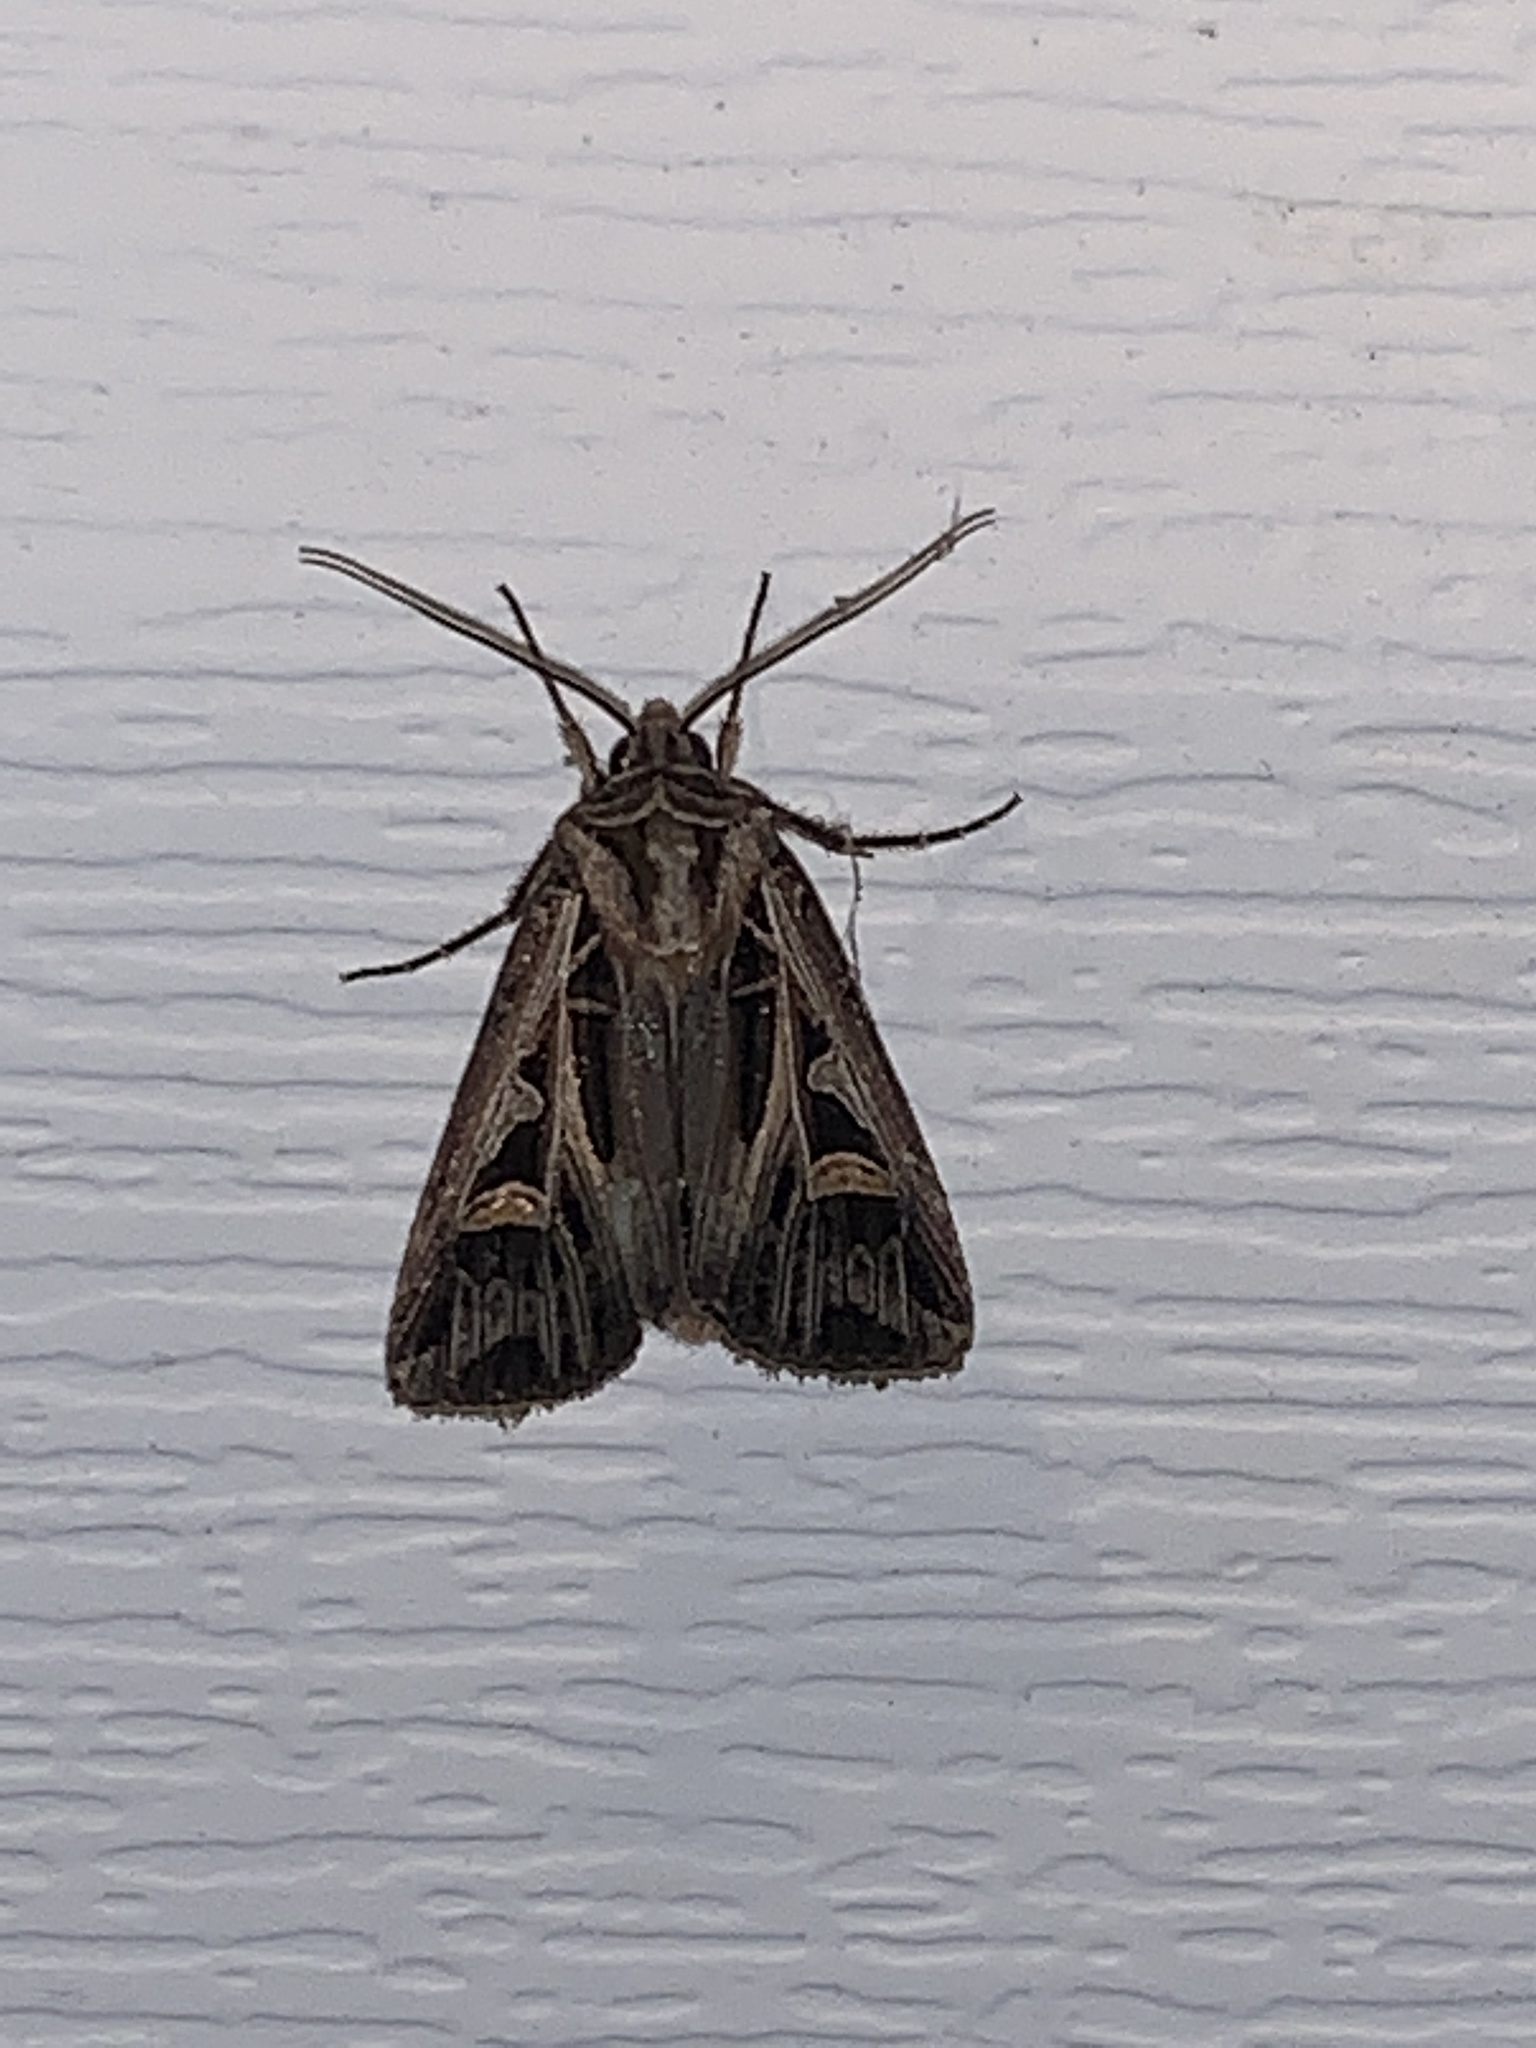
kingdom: Animalia
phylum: Arthropoda
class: Insecta
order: Lepidoptera
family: Noctuidae
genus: Feltia
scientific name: Feltia jaculifera
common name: Dingy cutworm moth
